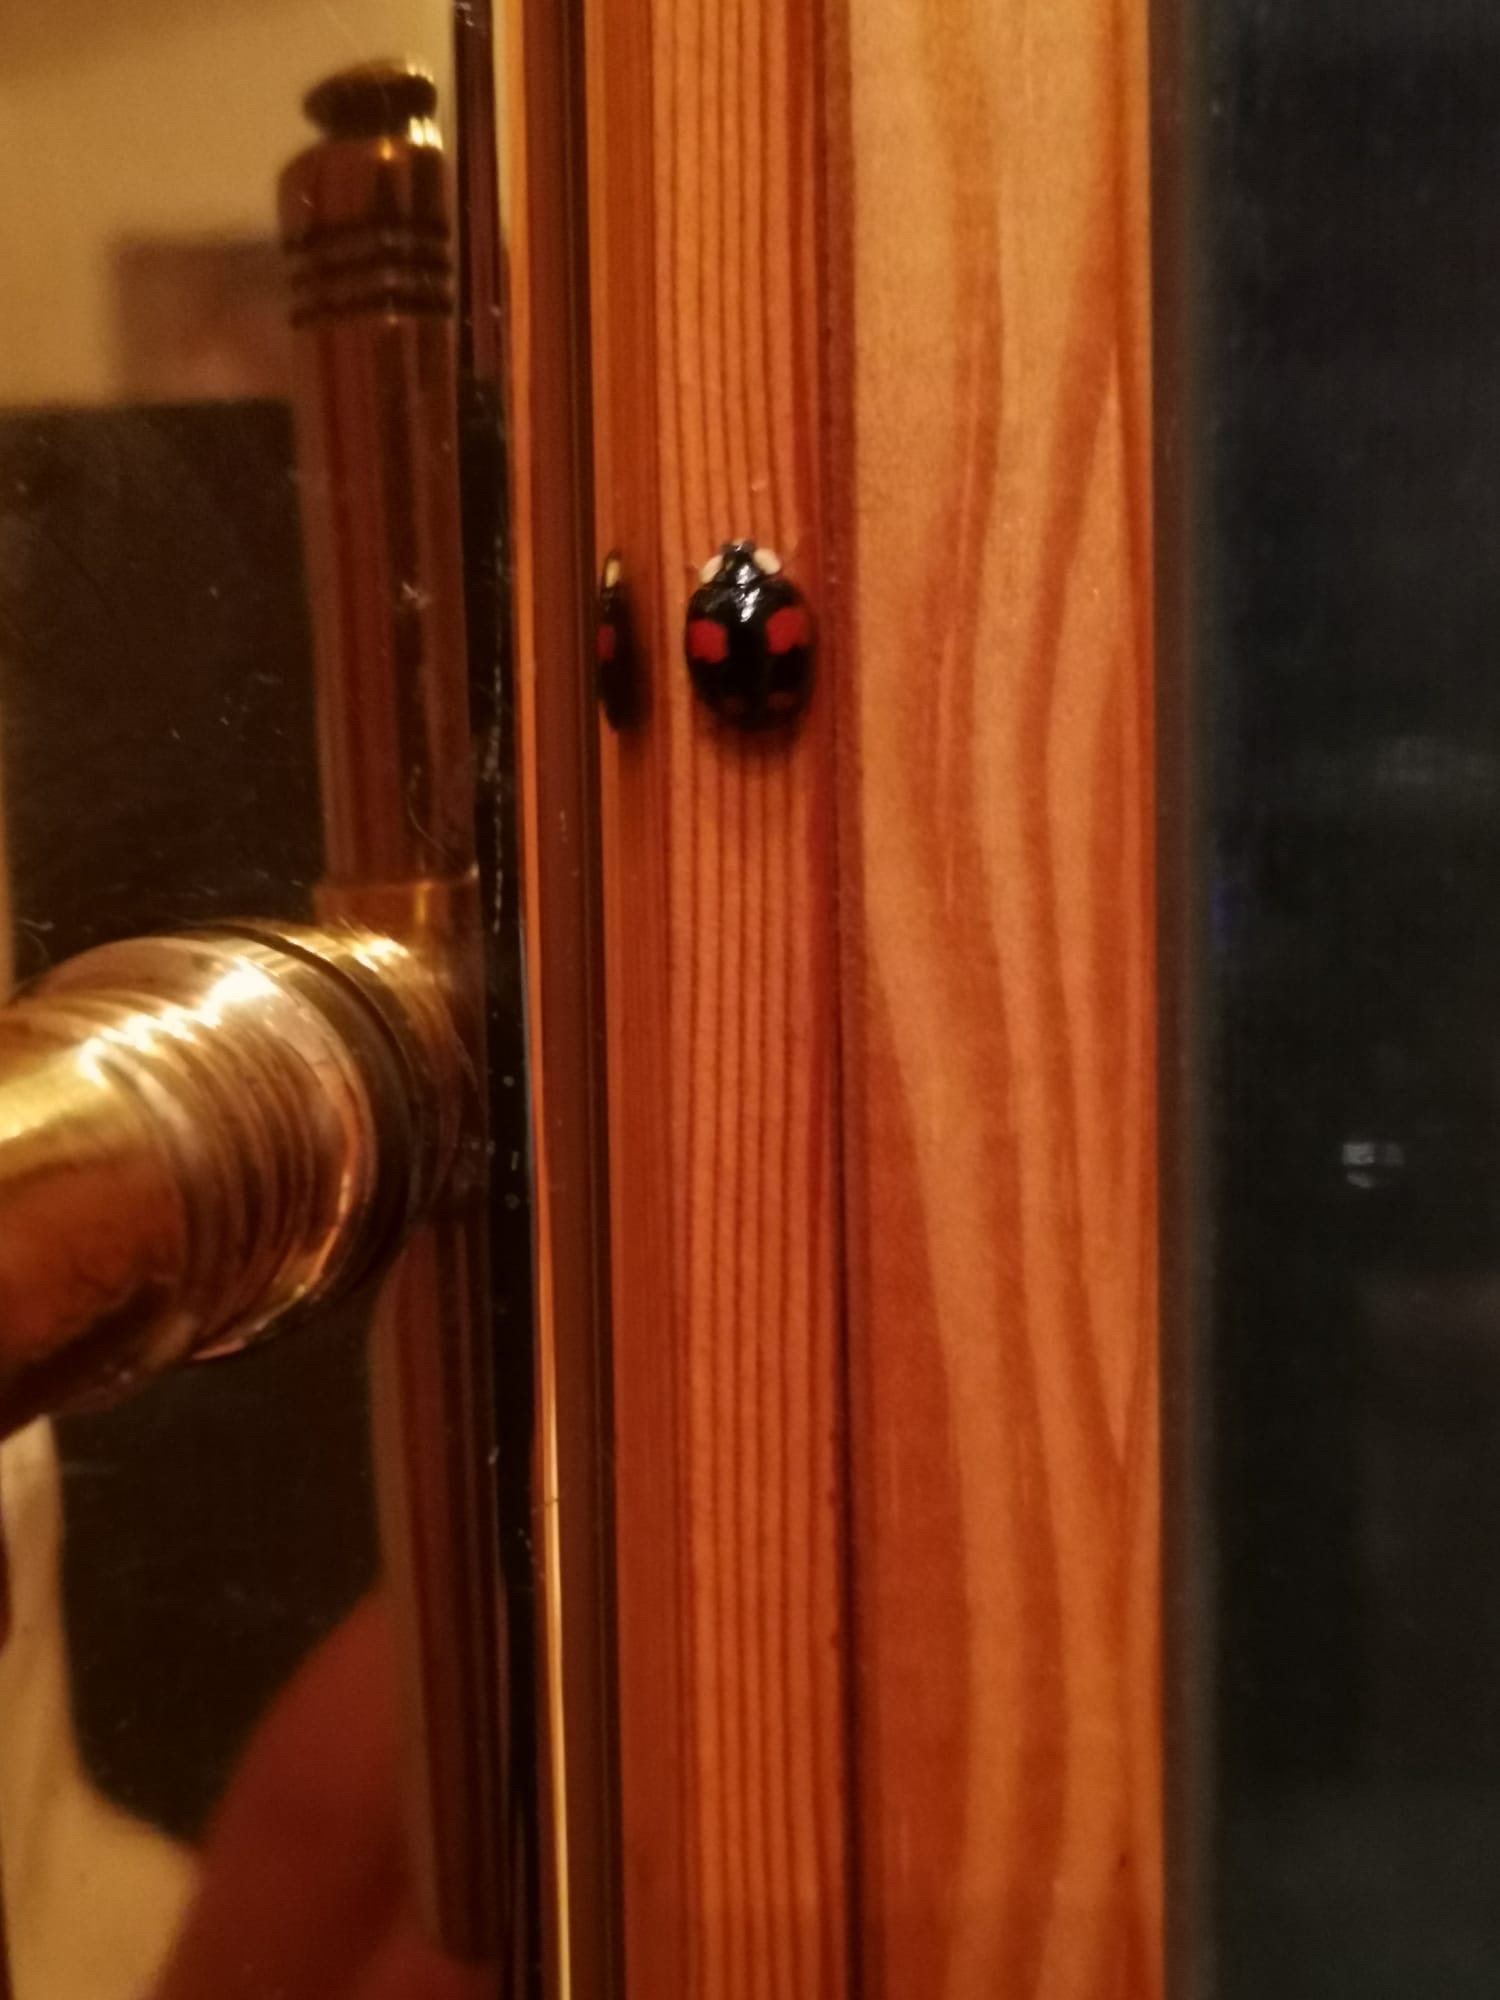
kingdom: Animalia
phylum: Arthropoda
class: Insecta
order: Coleoptera
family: Coccinellidae
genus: Harmonia
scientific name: Harmonia axyridis
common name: Harlequin ladybird
